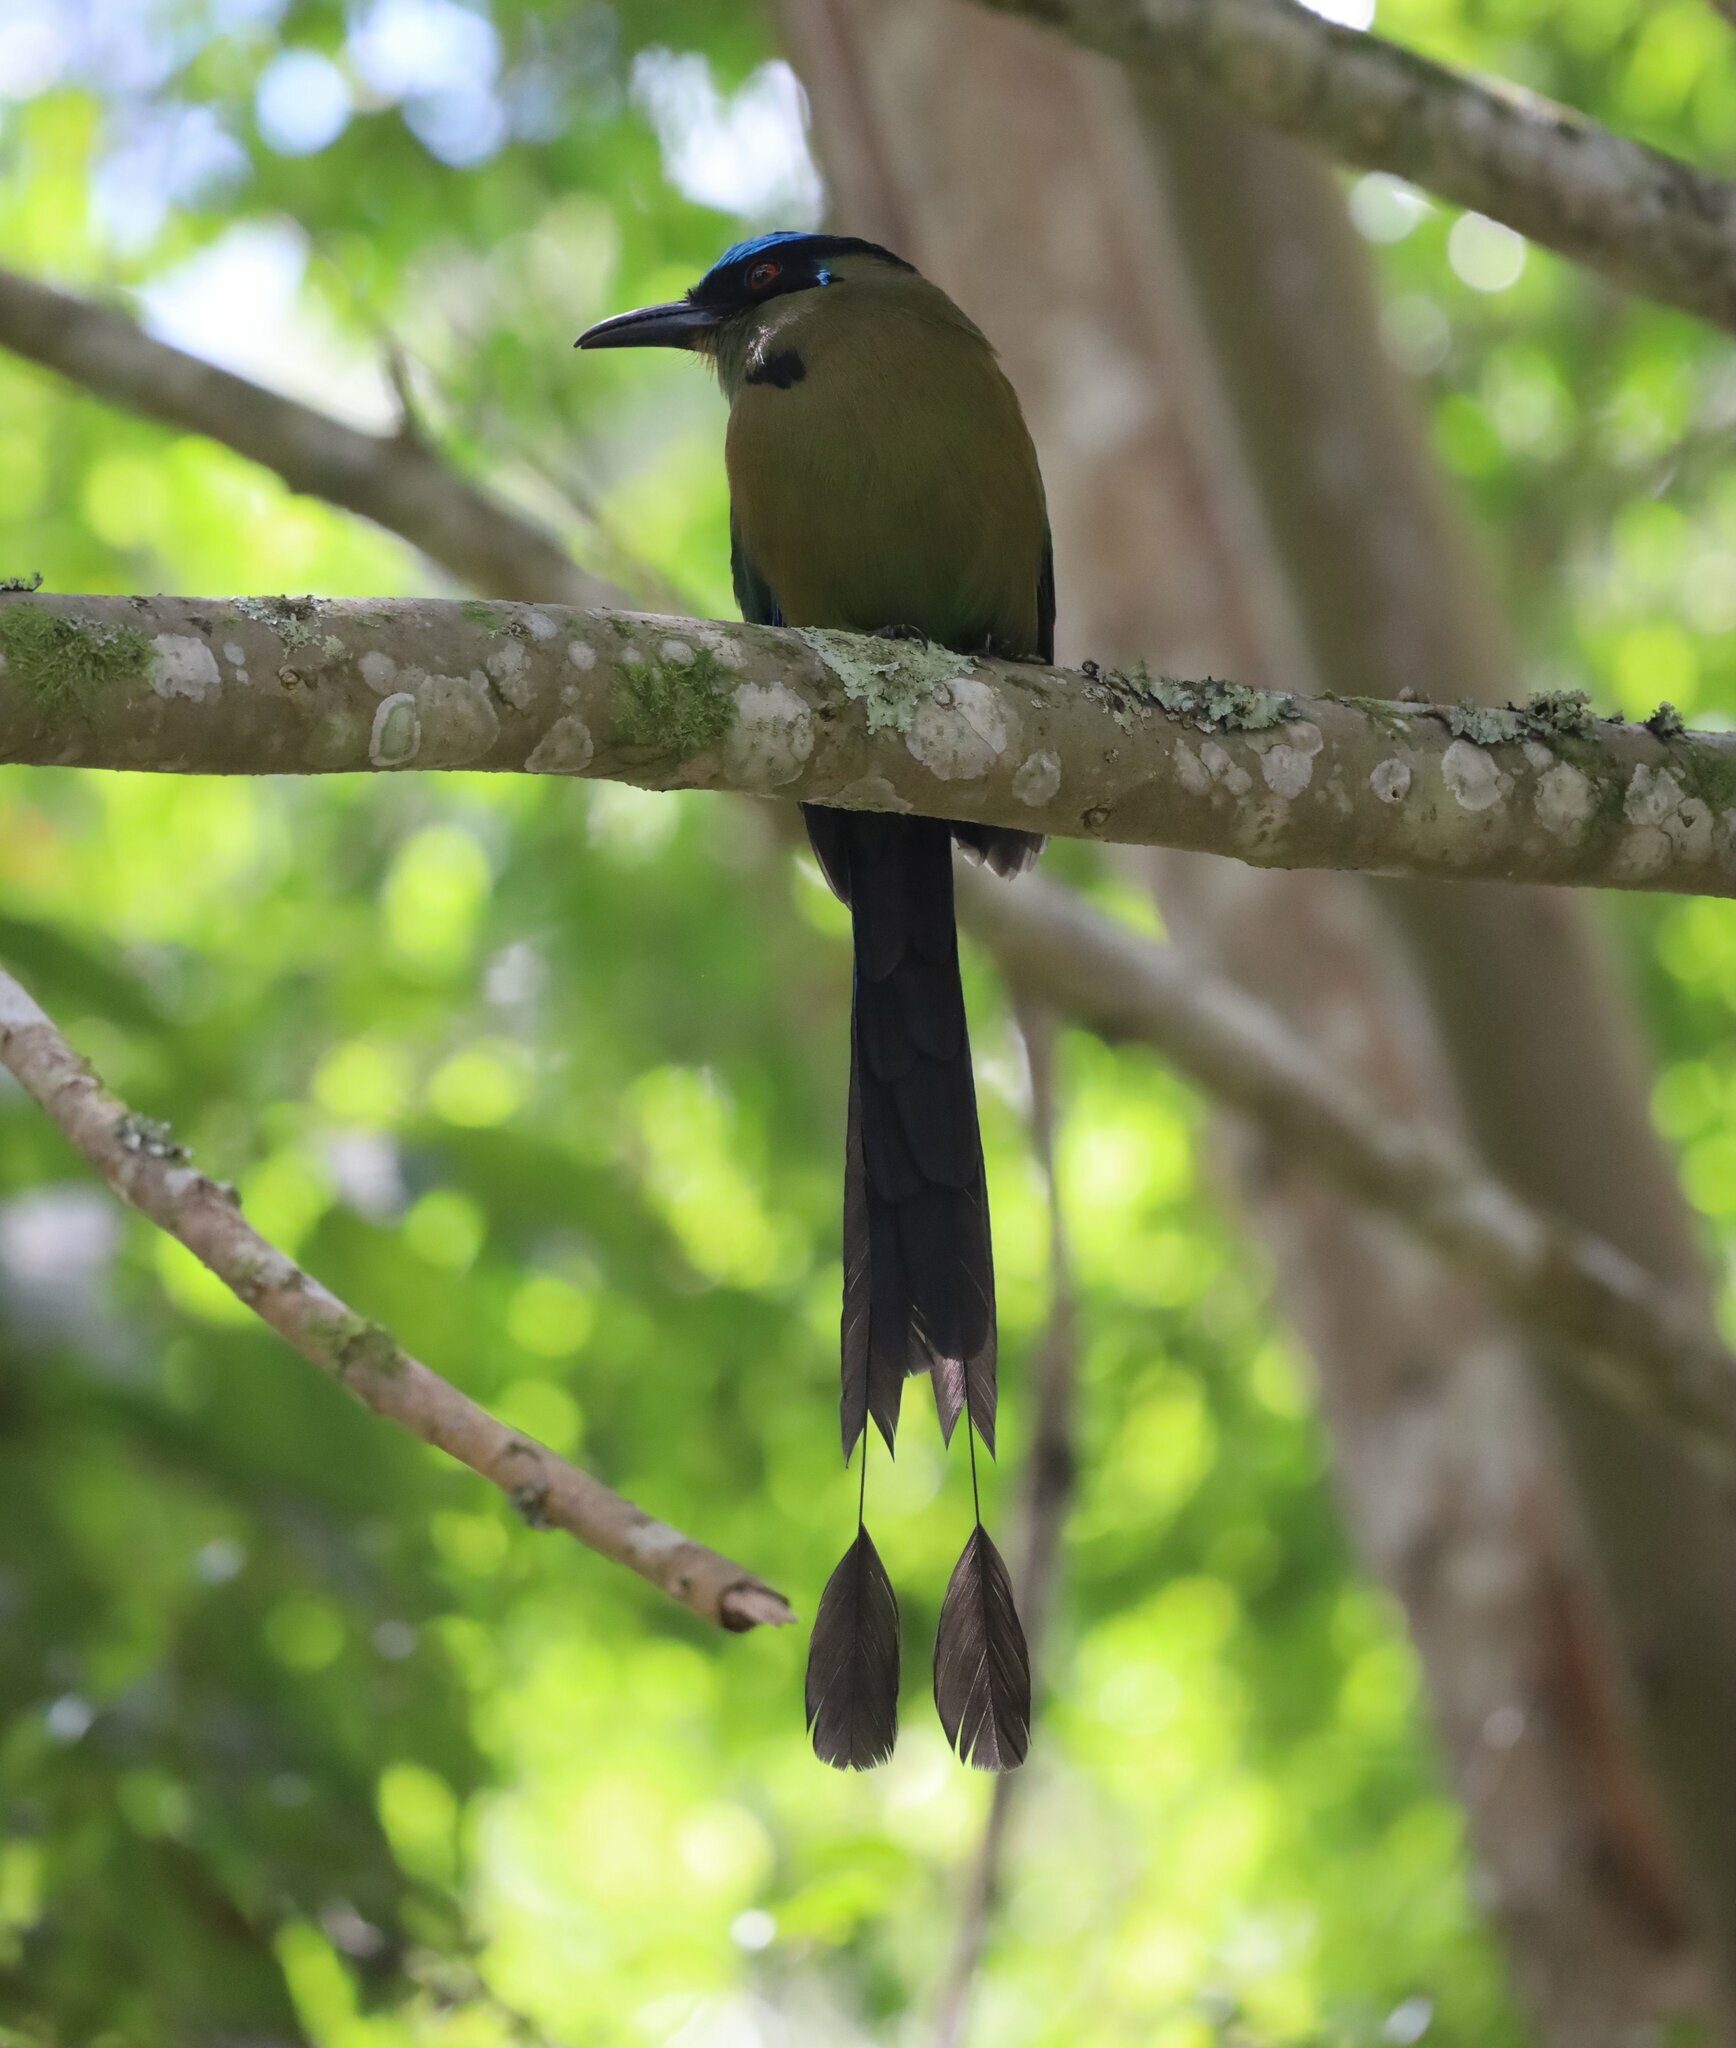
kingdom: Animalia
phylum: Chordata
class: Aves
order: Coraciiformes
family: Momotidae
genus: Momotus
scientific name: Momotus aequatorialis
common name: Andean motmot
